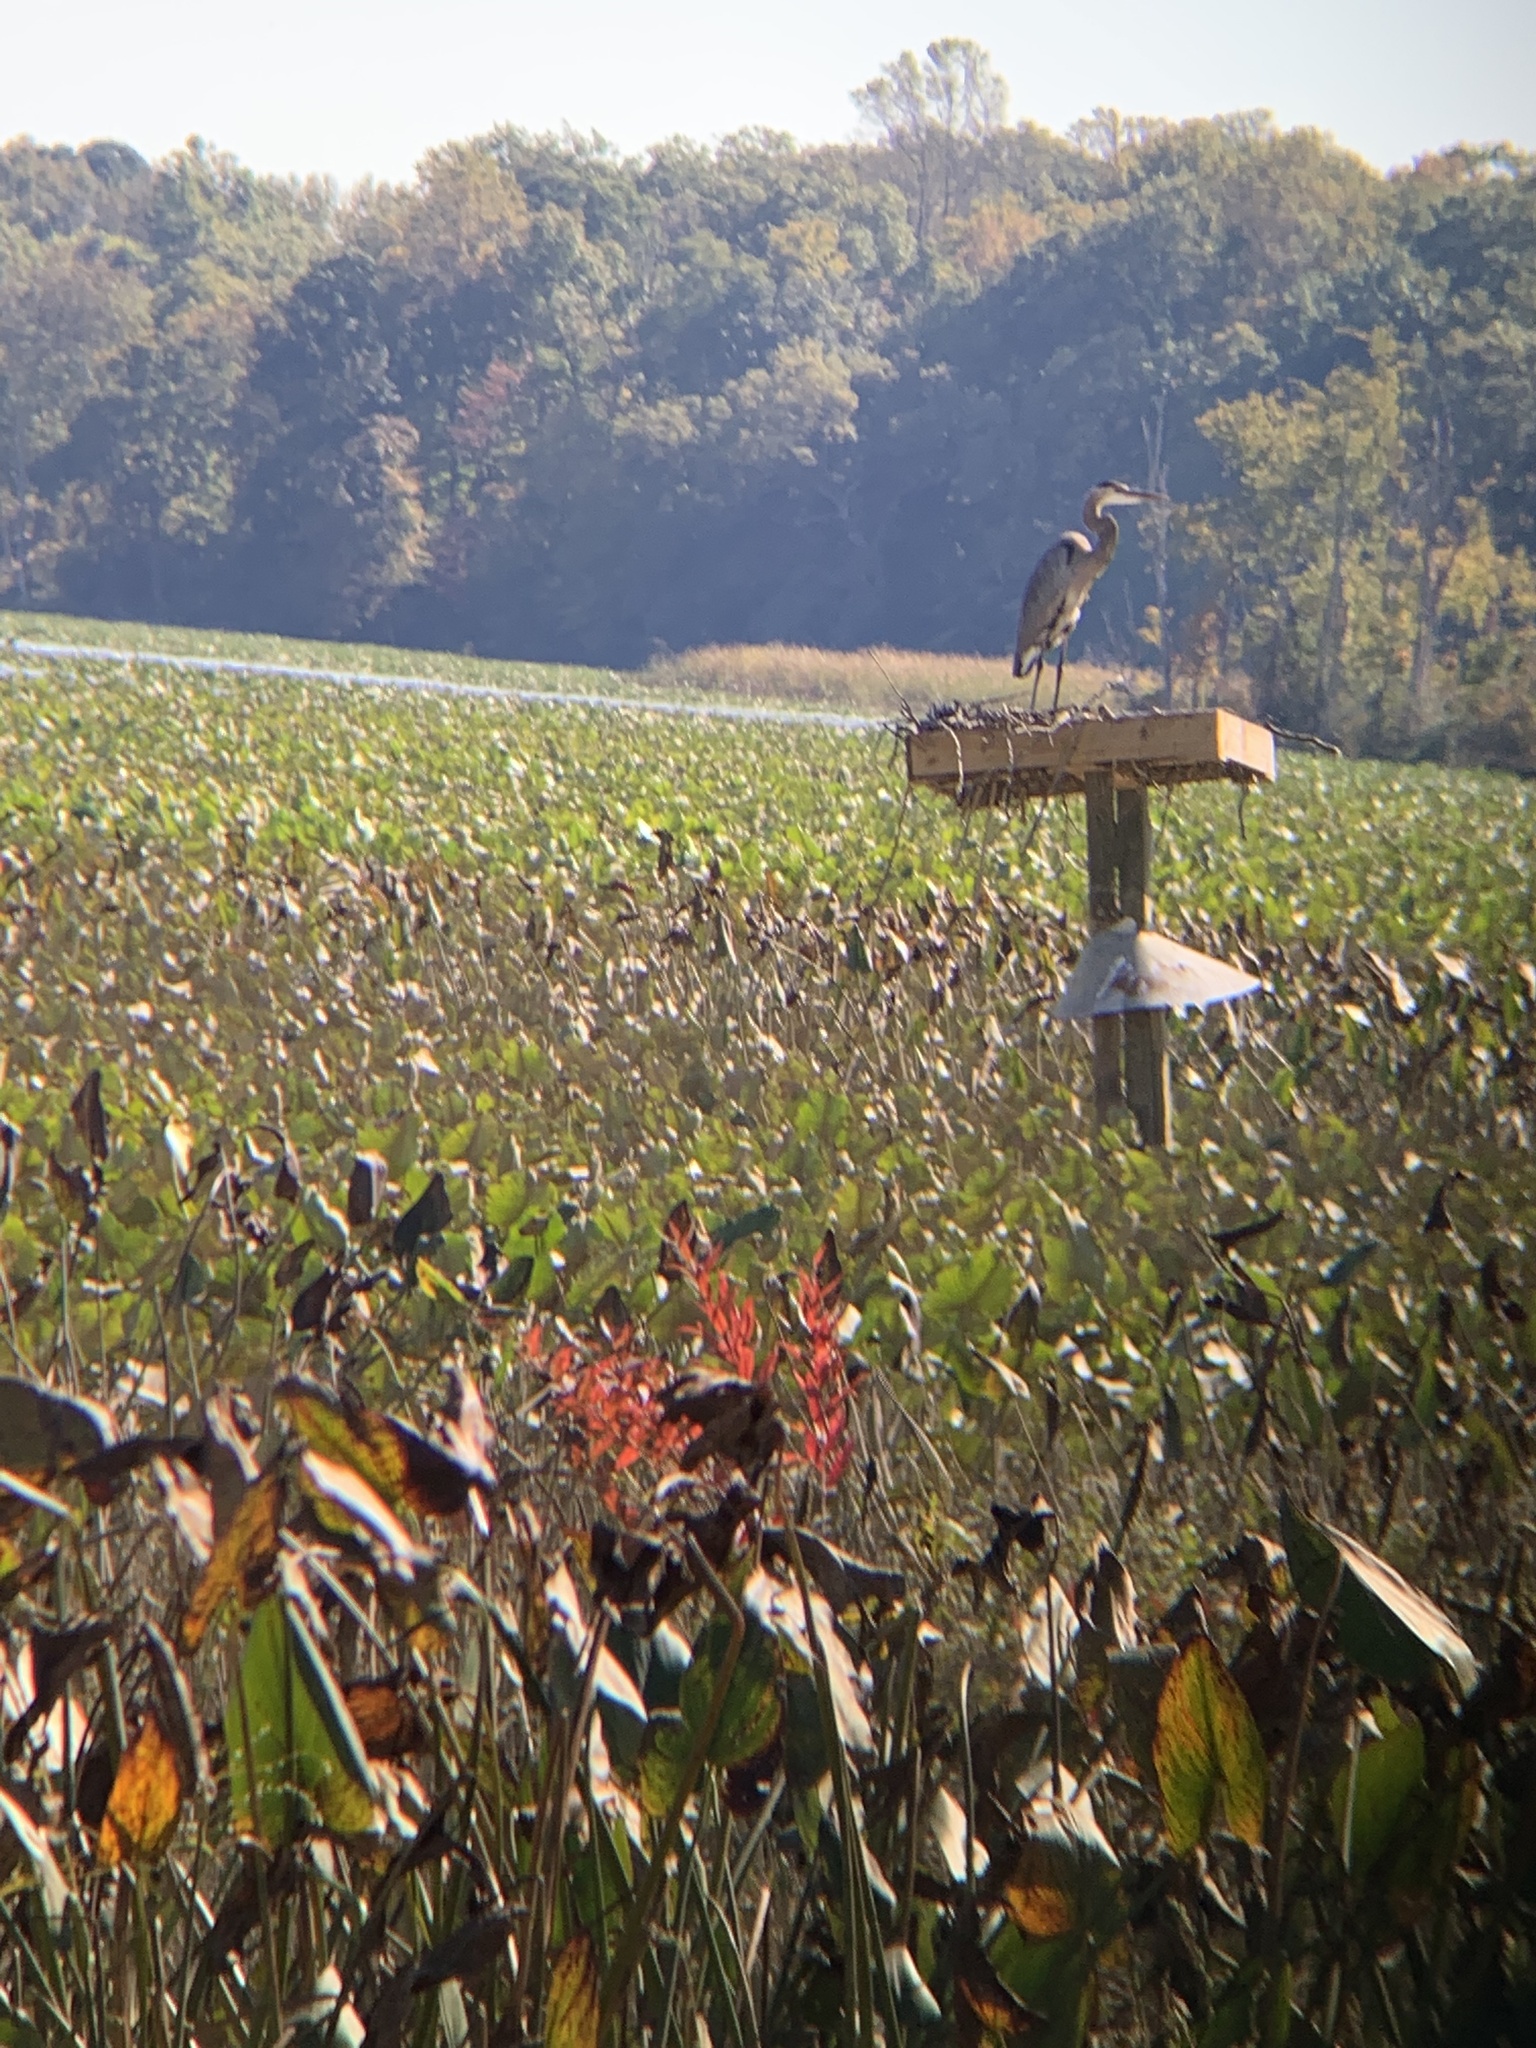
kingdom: Animalia
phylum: Chordata
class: Aves
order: Pelecaniformes
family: Ardeidae
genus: Ardea
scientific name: Ardea herodias
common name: Great blue heron
